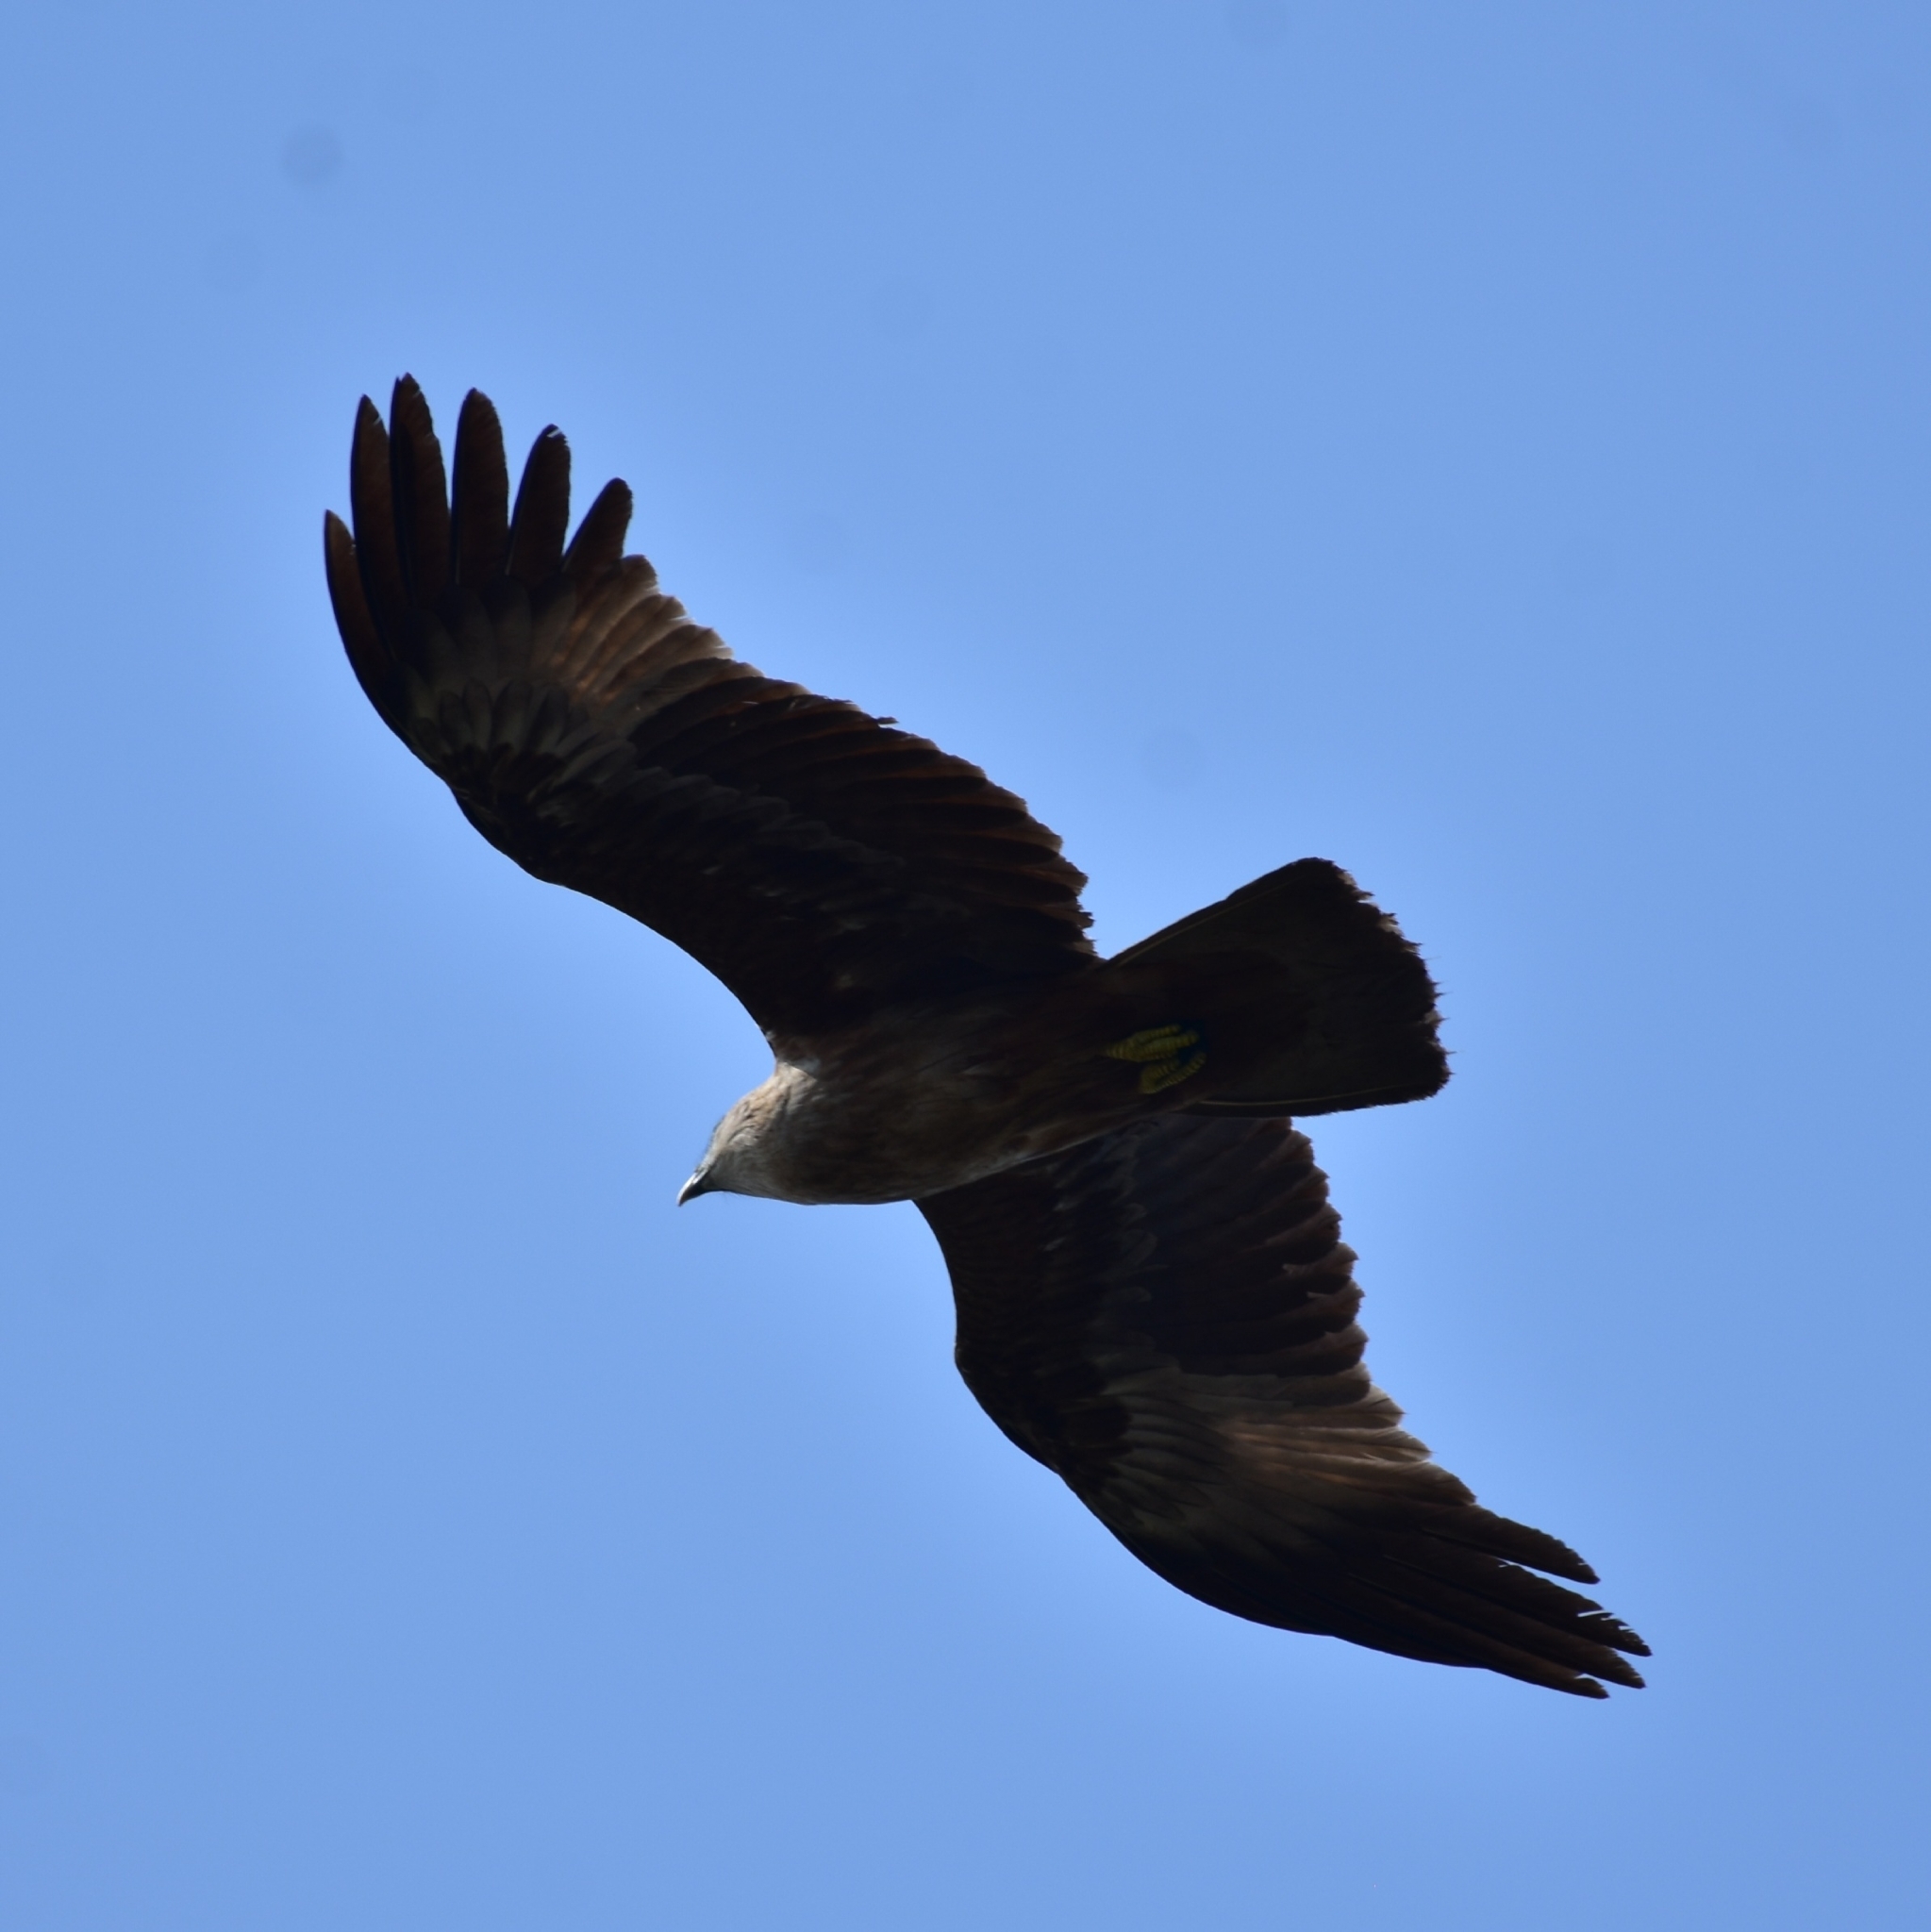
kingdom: Animalia
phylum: Chordata
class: Aves
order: Accipitriformes
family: Accipitridae
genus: Haliastur
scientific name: Haliastur indus
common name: Brahminy kite
